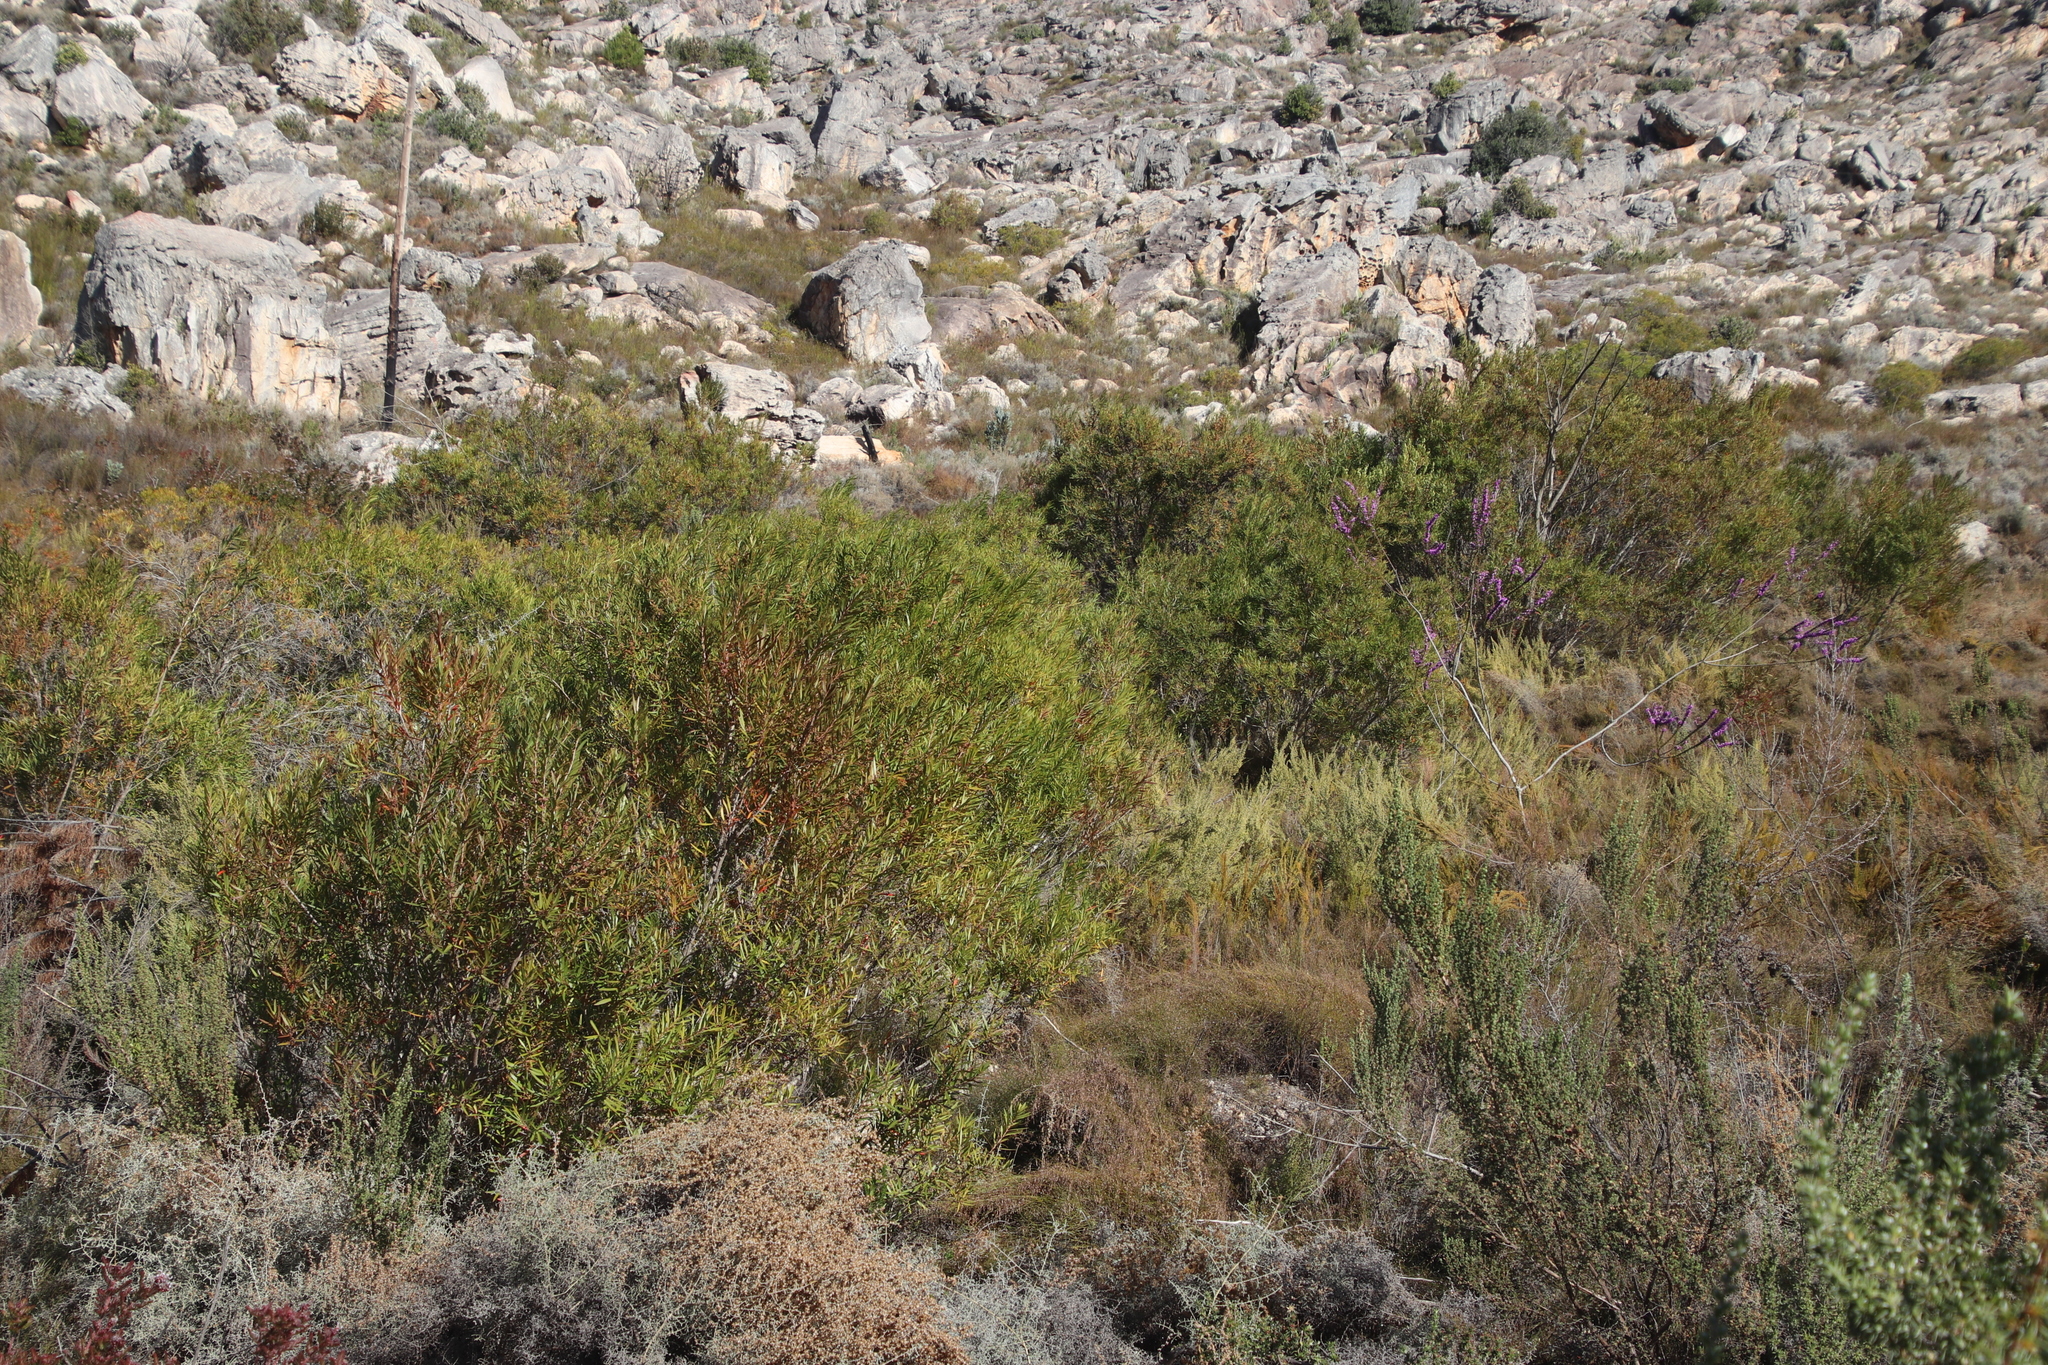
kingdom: Plantae
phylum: Tracheophyta
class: Magnoliopsida
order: Myrtales
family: Myrtaceae
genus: Callistemon
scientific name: Callistemon lanceolatus
